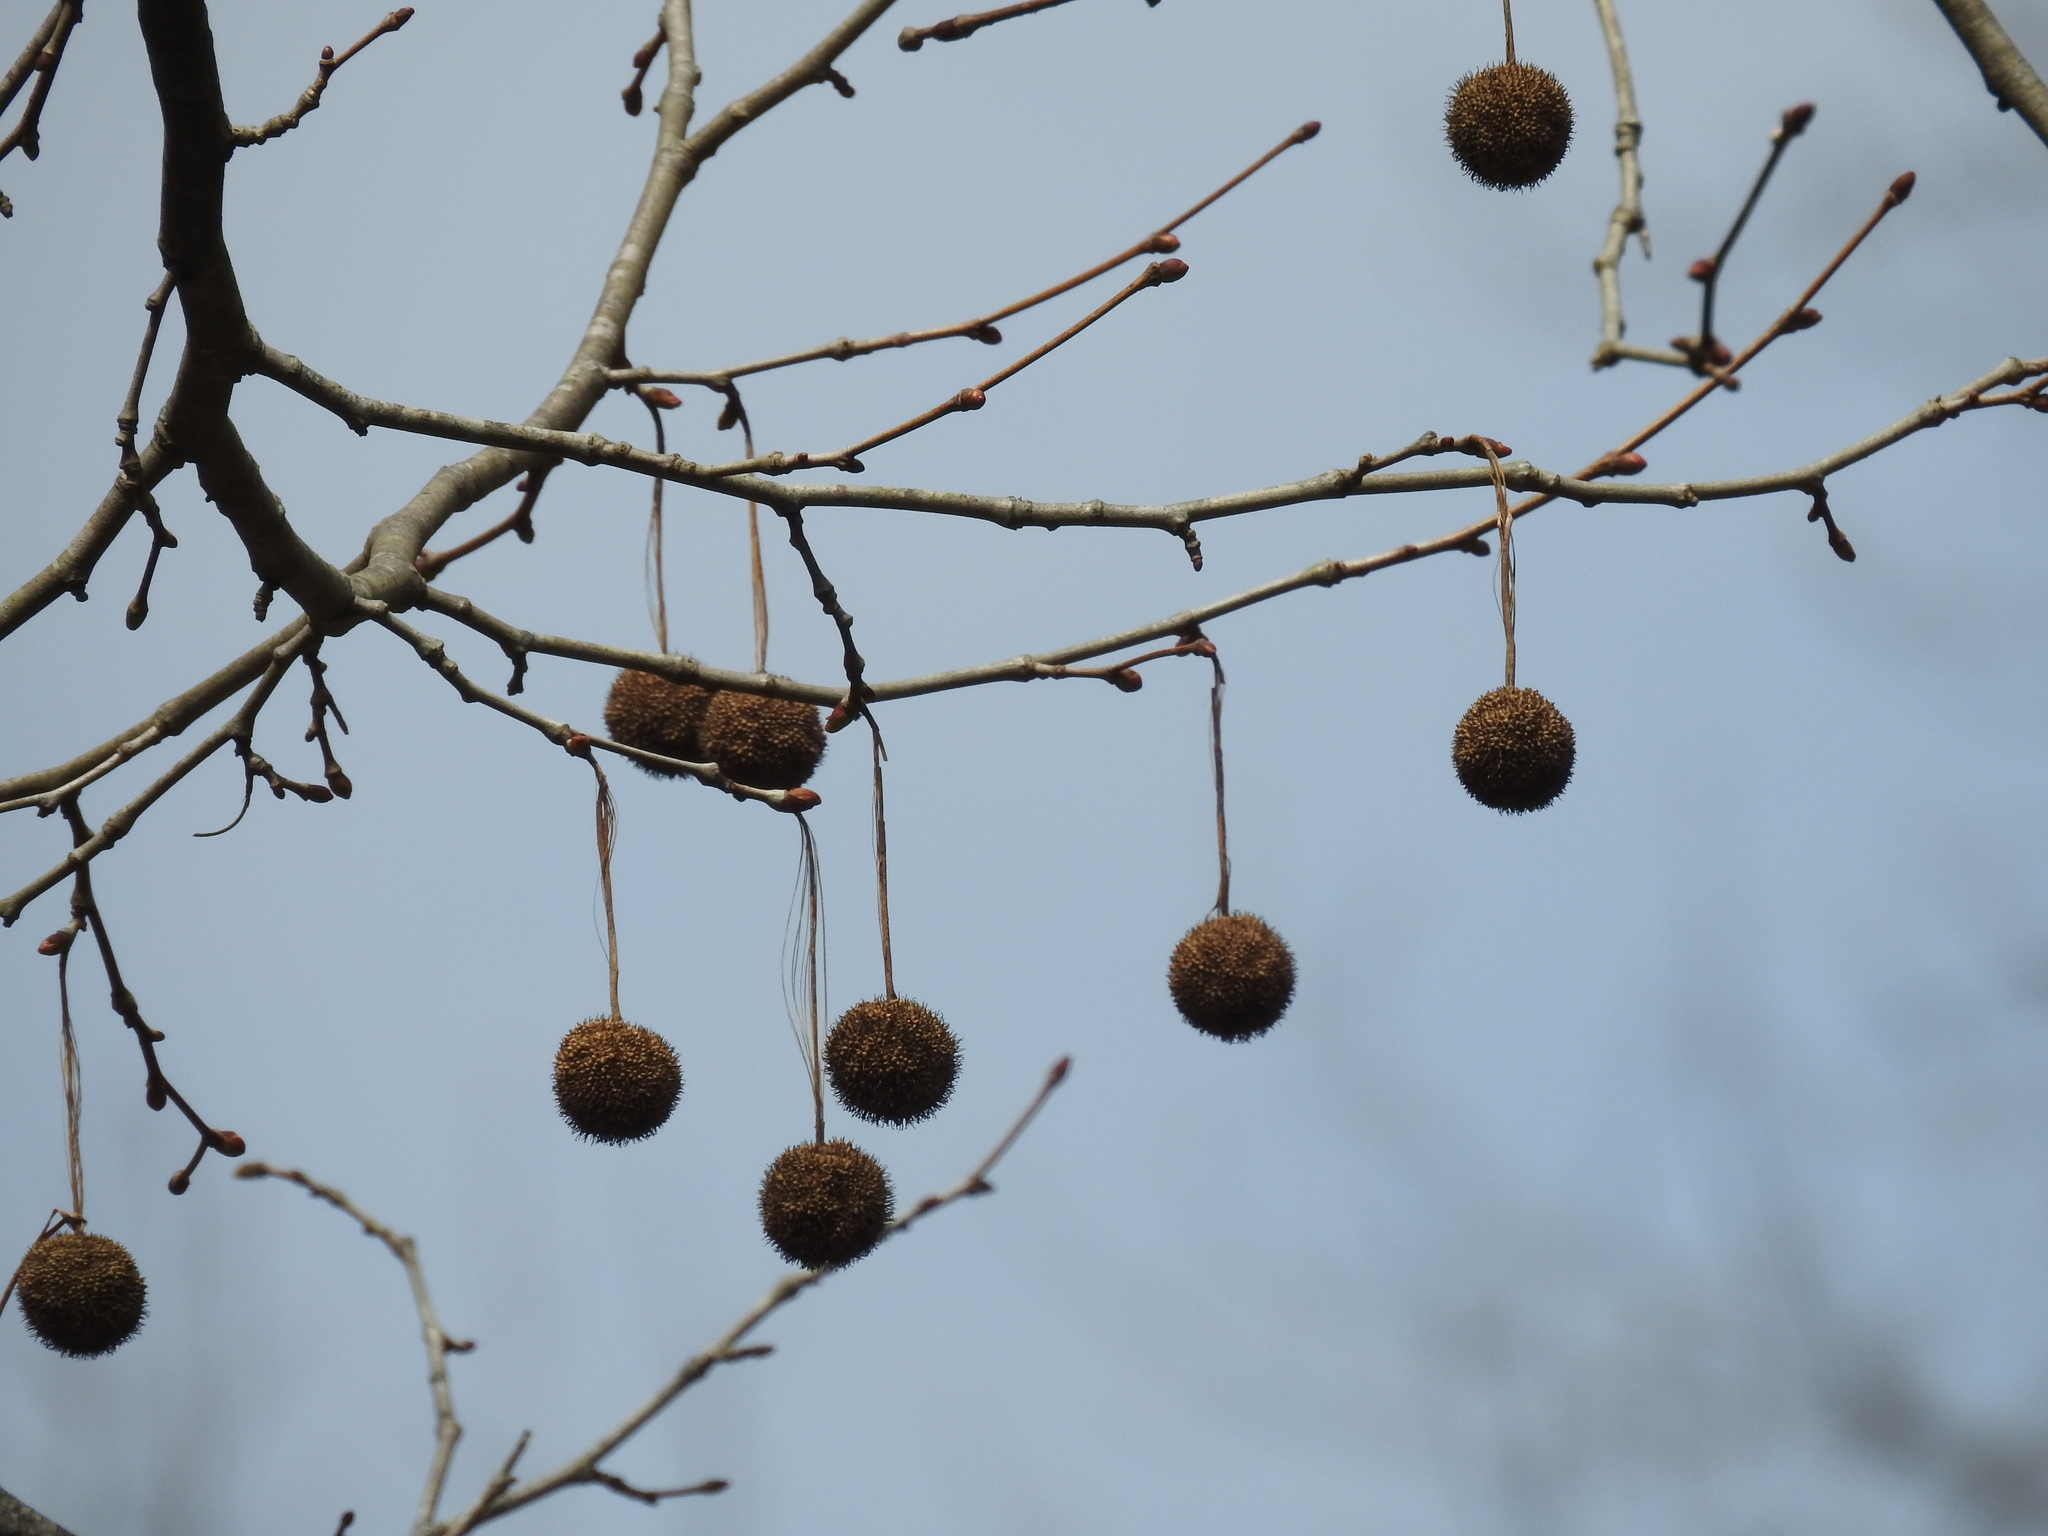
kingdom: Plantae
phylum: Tracheophyta
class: Magnoliopsida
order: Proteales
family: Platanaceae
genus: Platanus
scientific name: Platanus occidentalis
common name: American sycamore
